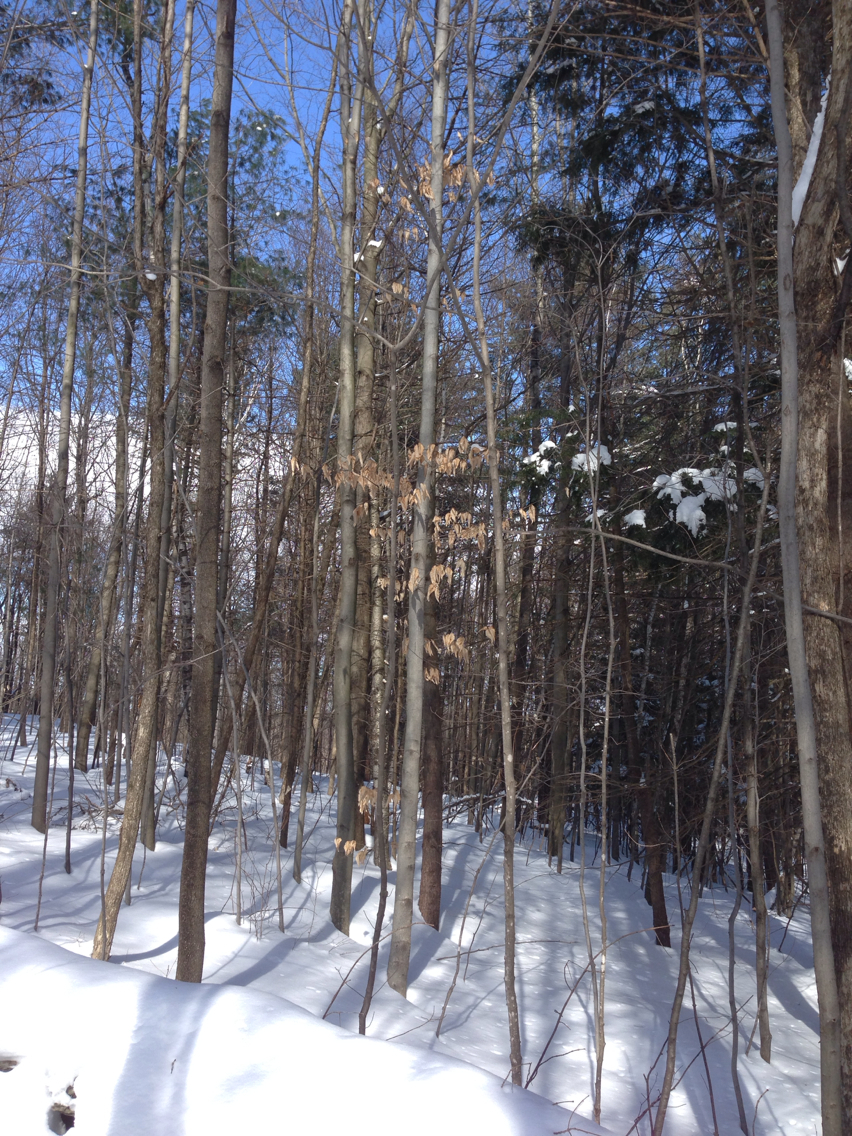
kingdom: Plantae
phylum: Tracheophyta
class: Magnoliopsida
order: Fagales
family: Fagaceae
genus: Fagus
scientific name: Fagus grandifolia
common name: American beech
